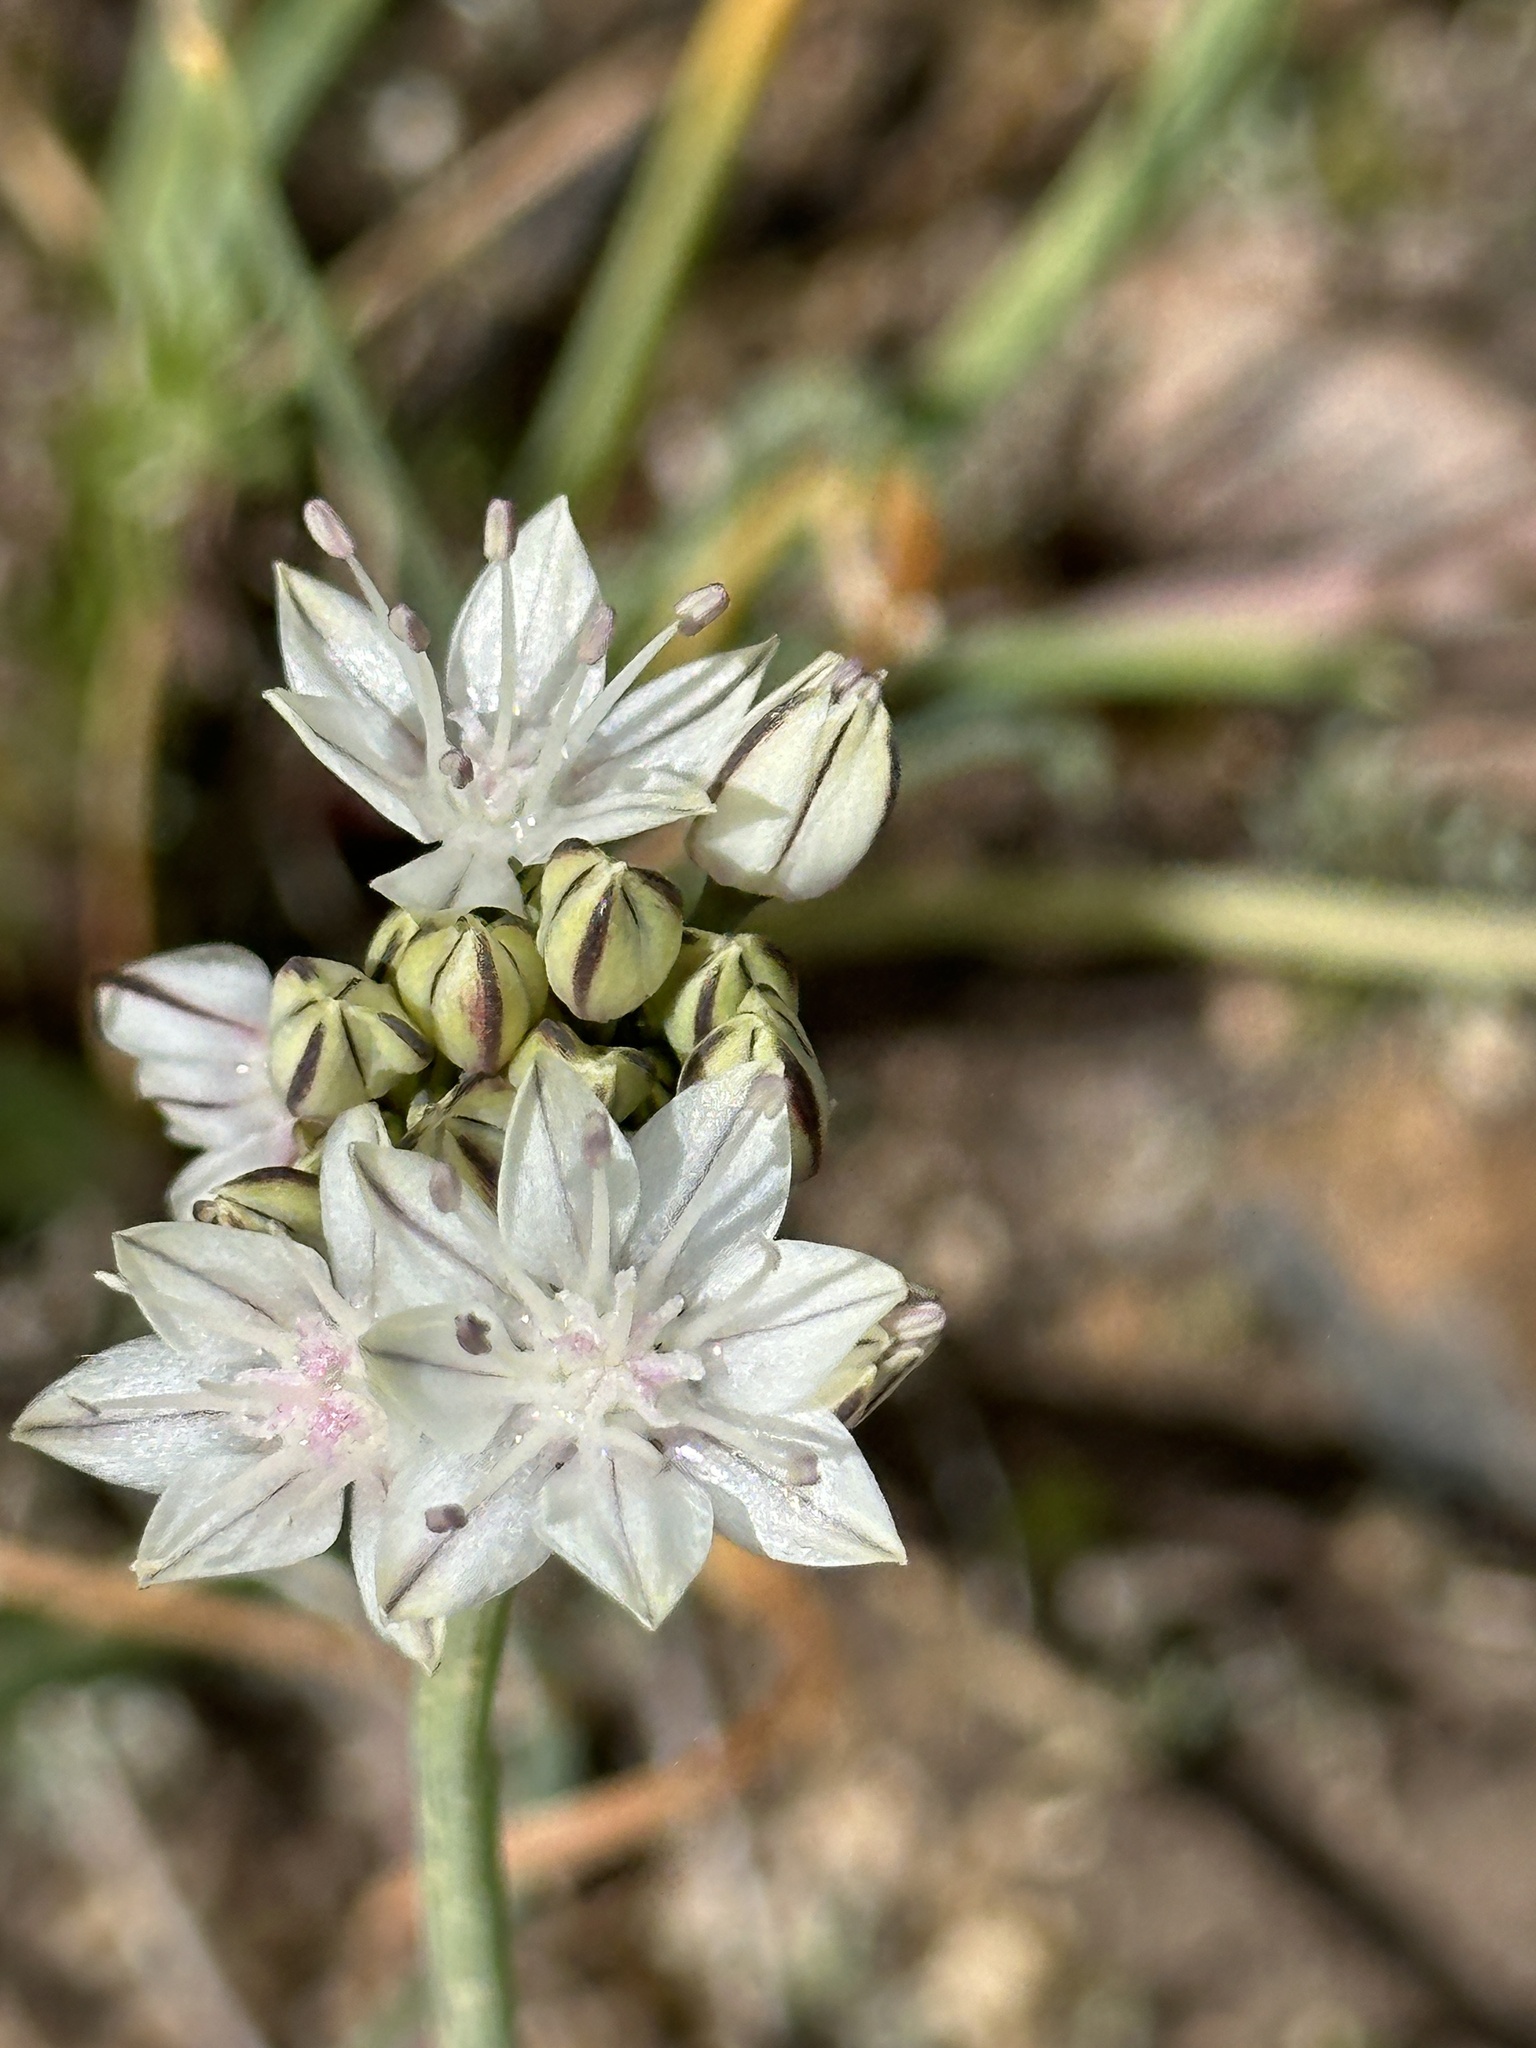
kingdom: Plantae
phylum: Tracheophyta
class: Liliopsida
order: Asparagales
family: Amaryllidaceae
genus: Allium
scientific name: Allium haematochiton
